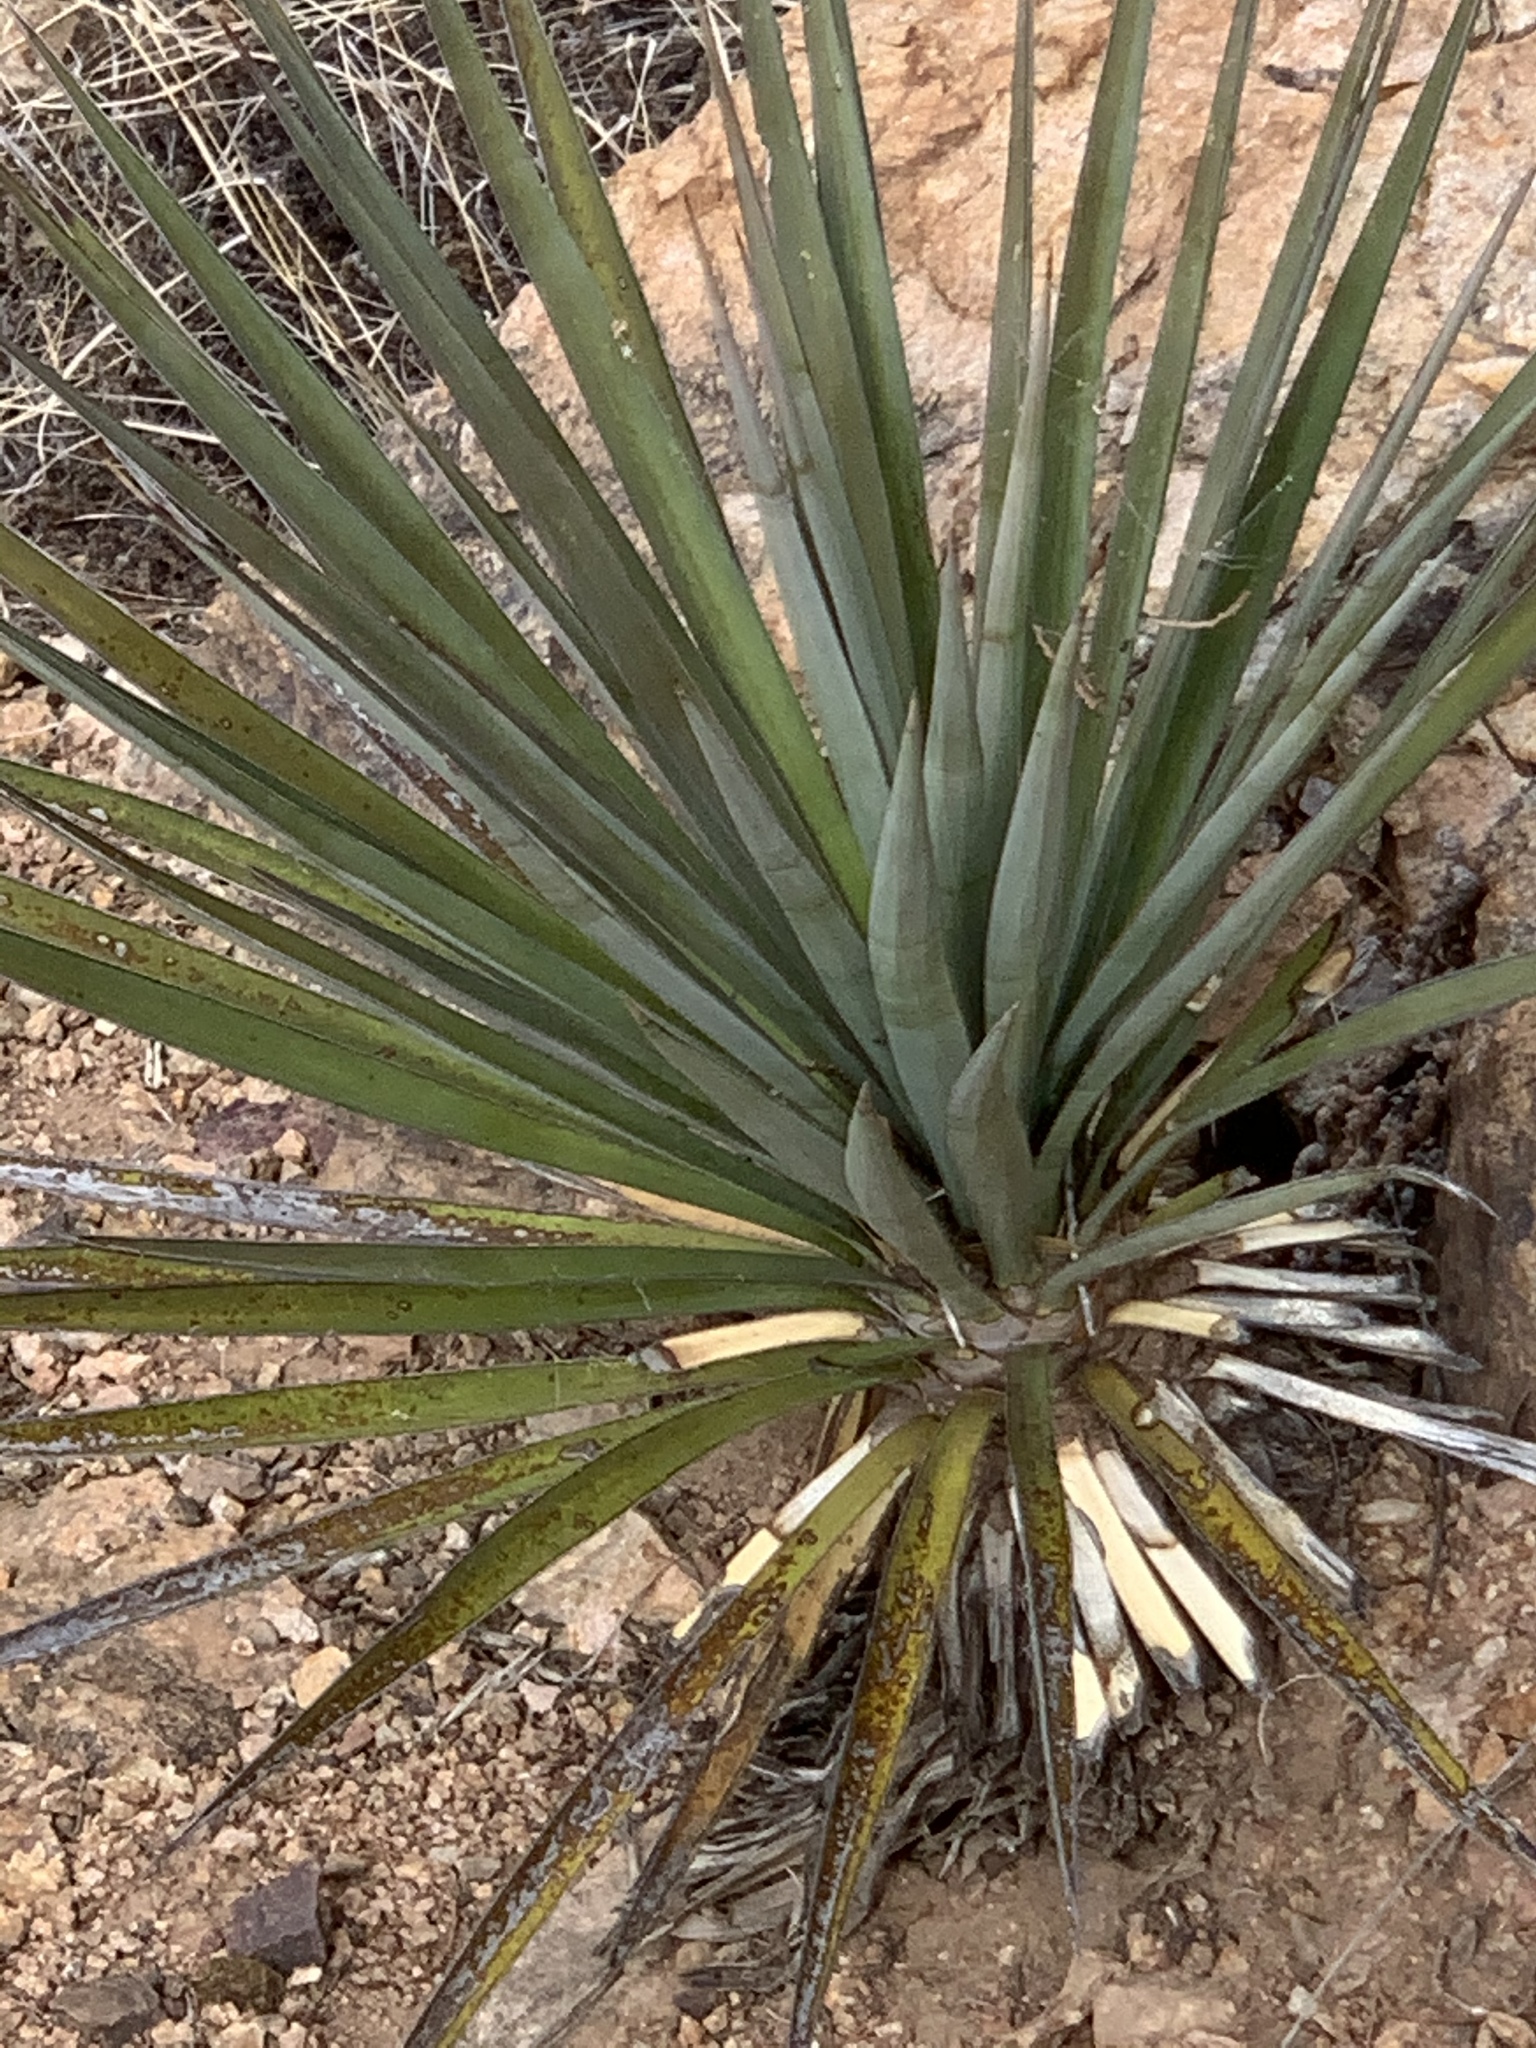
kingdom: Plantae
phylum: Tracheophyta
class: Liliopsida
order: Asparagales
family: Asparagaceae
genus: Yucca
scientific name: Yucca madrensis
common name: Hoary yucca
